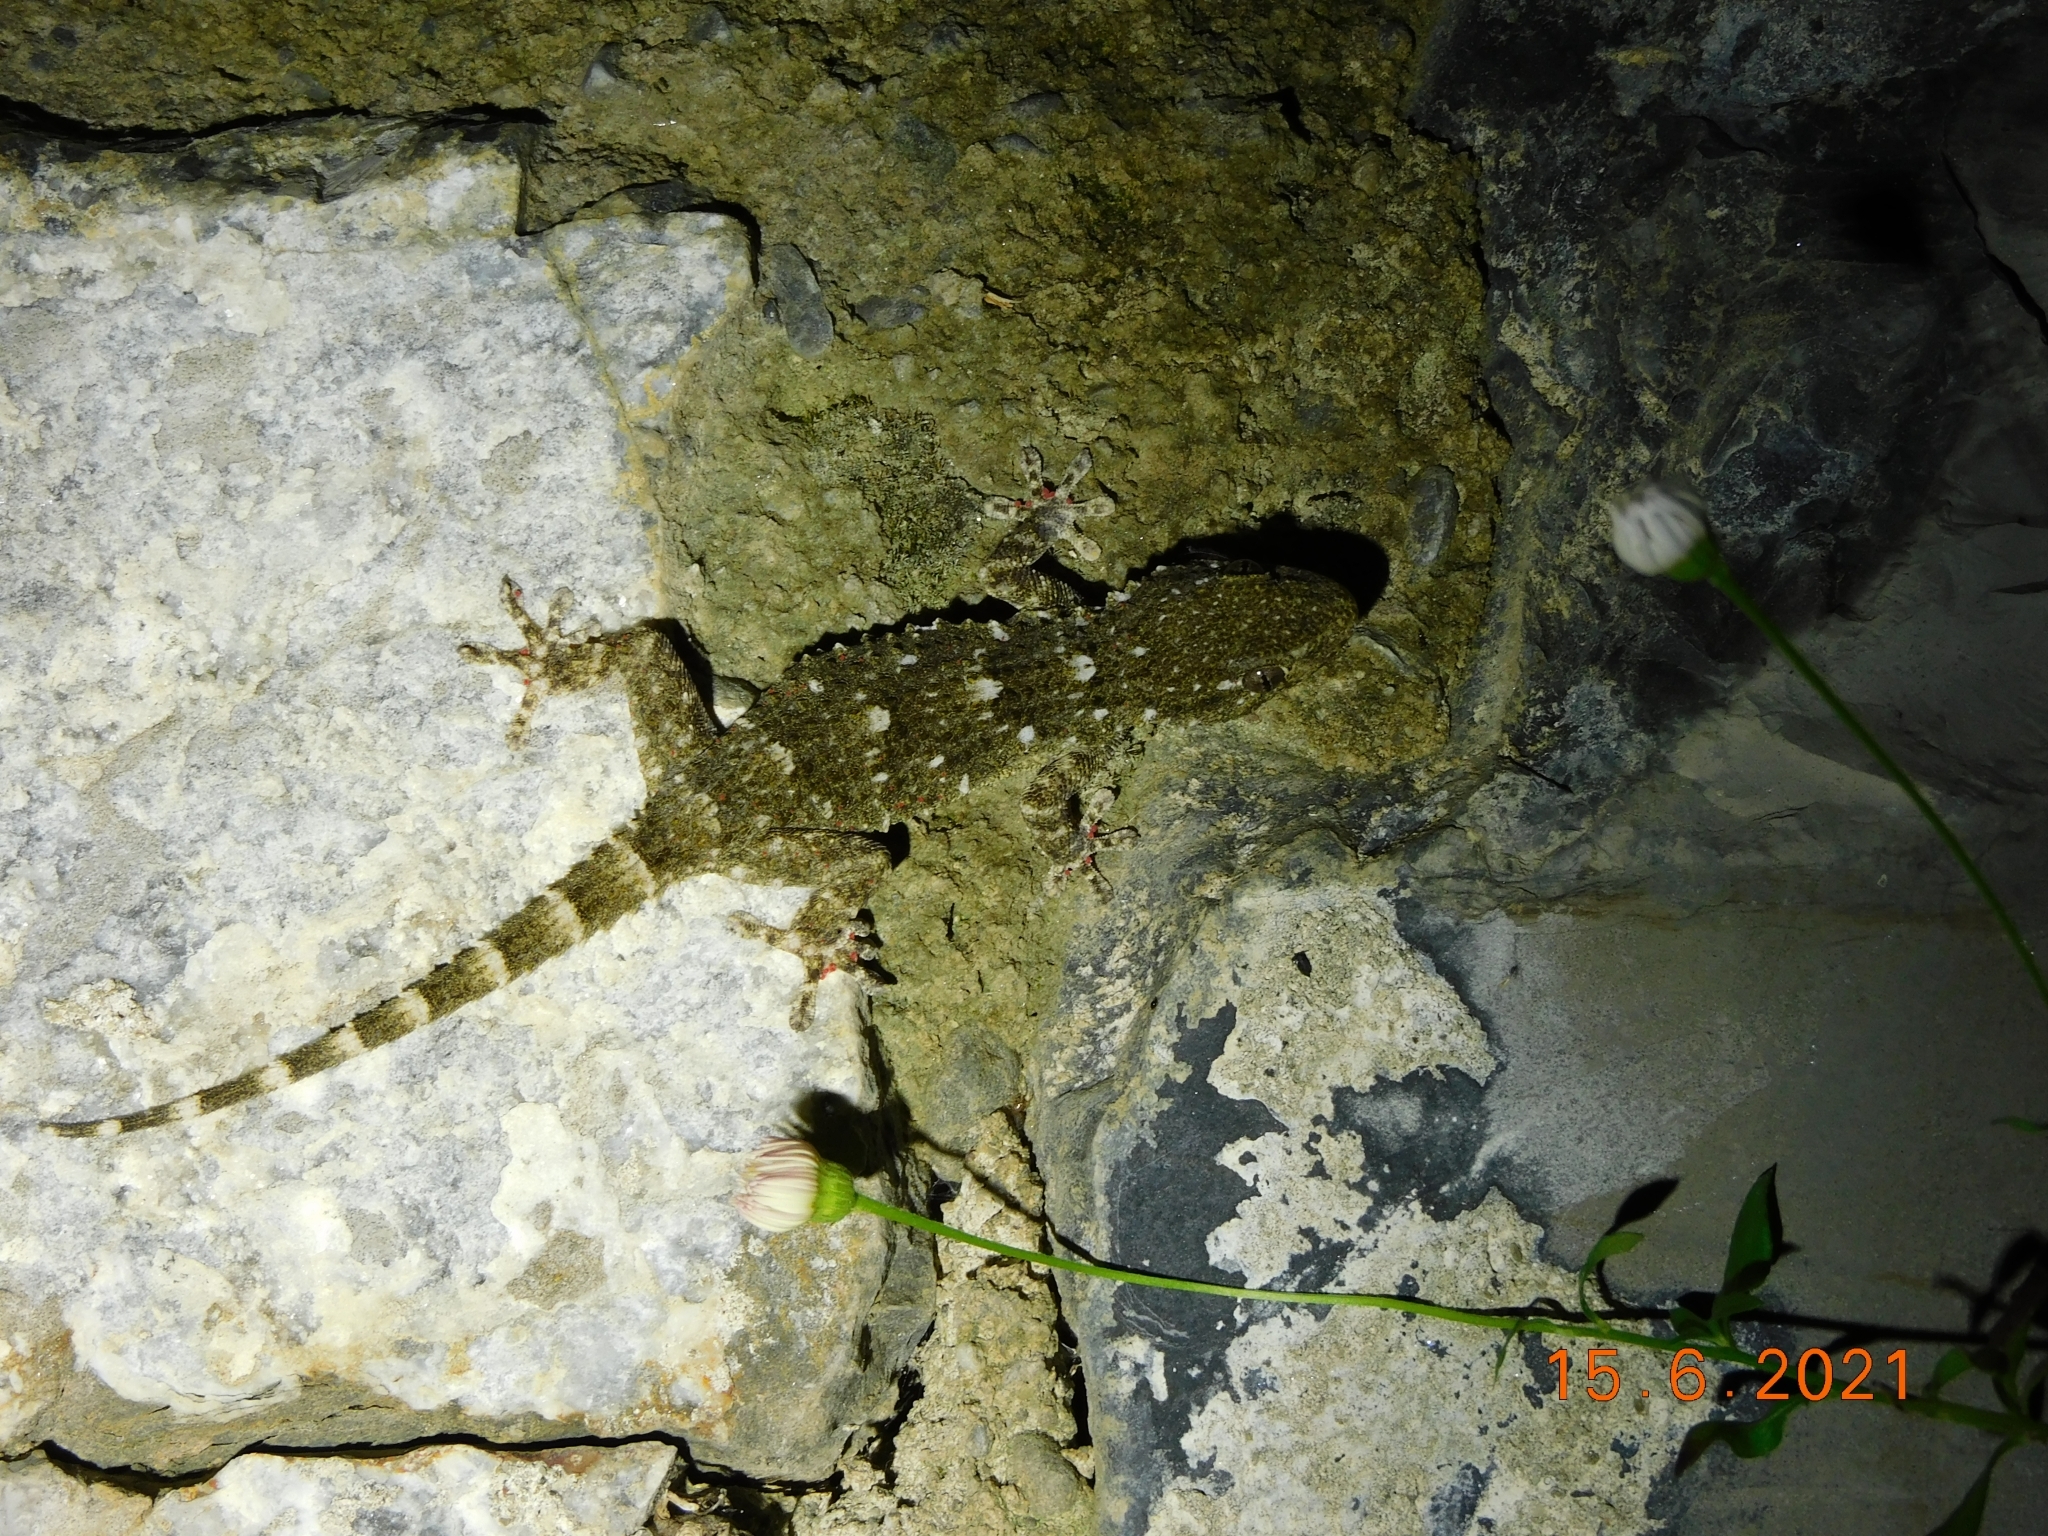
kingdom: Animalia
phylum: Chordata
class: Squamata
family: Phyllodactylidae
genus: Tarentola
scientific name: Tarentola mauritanica
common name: Moorish gecko
